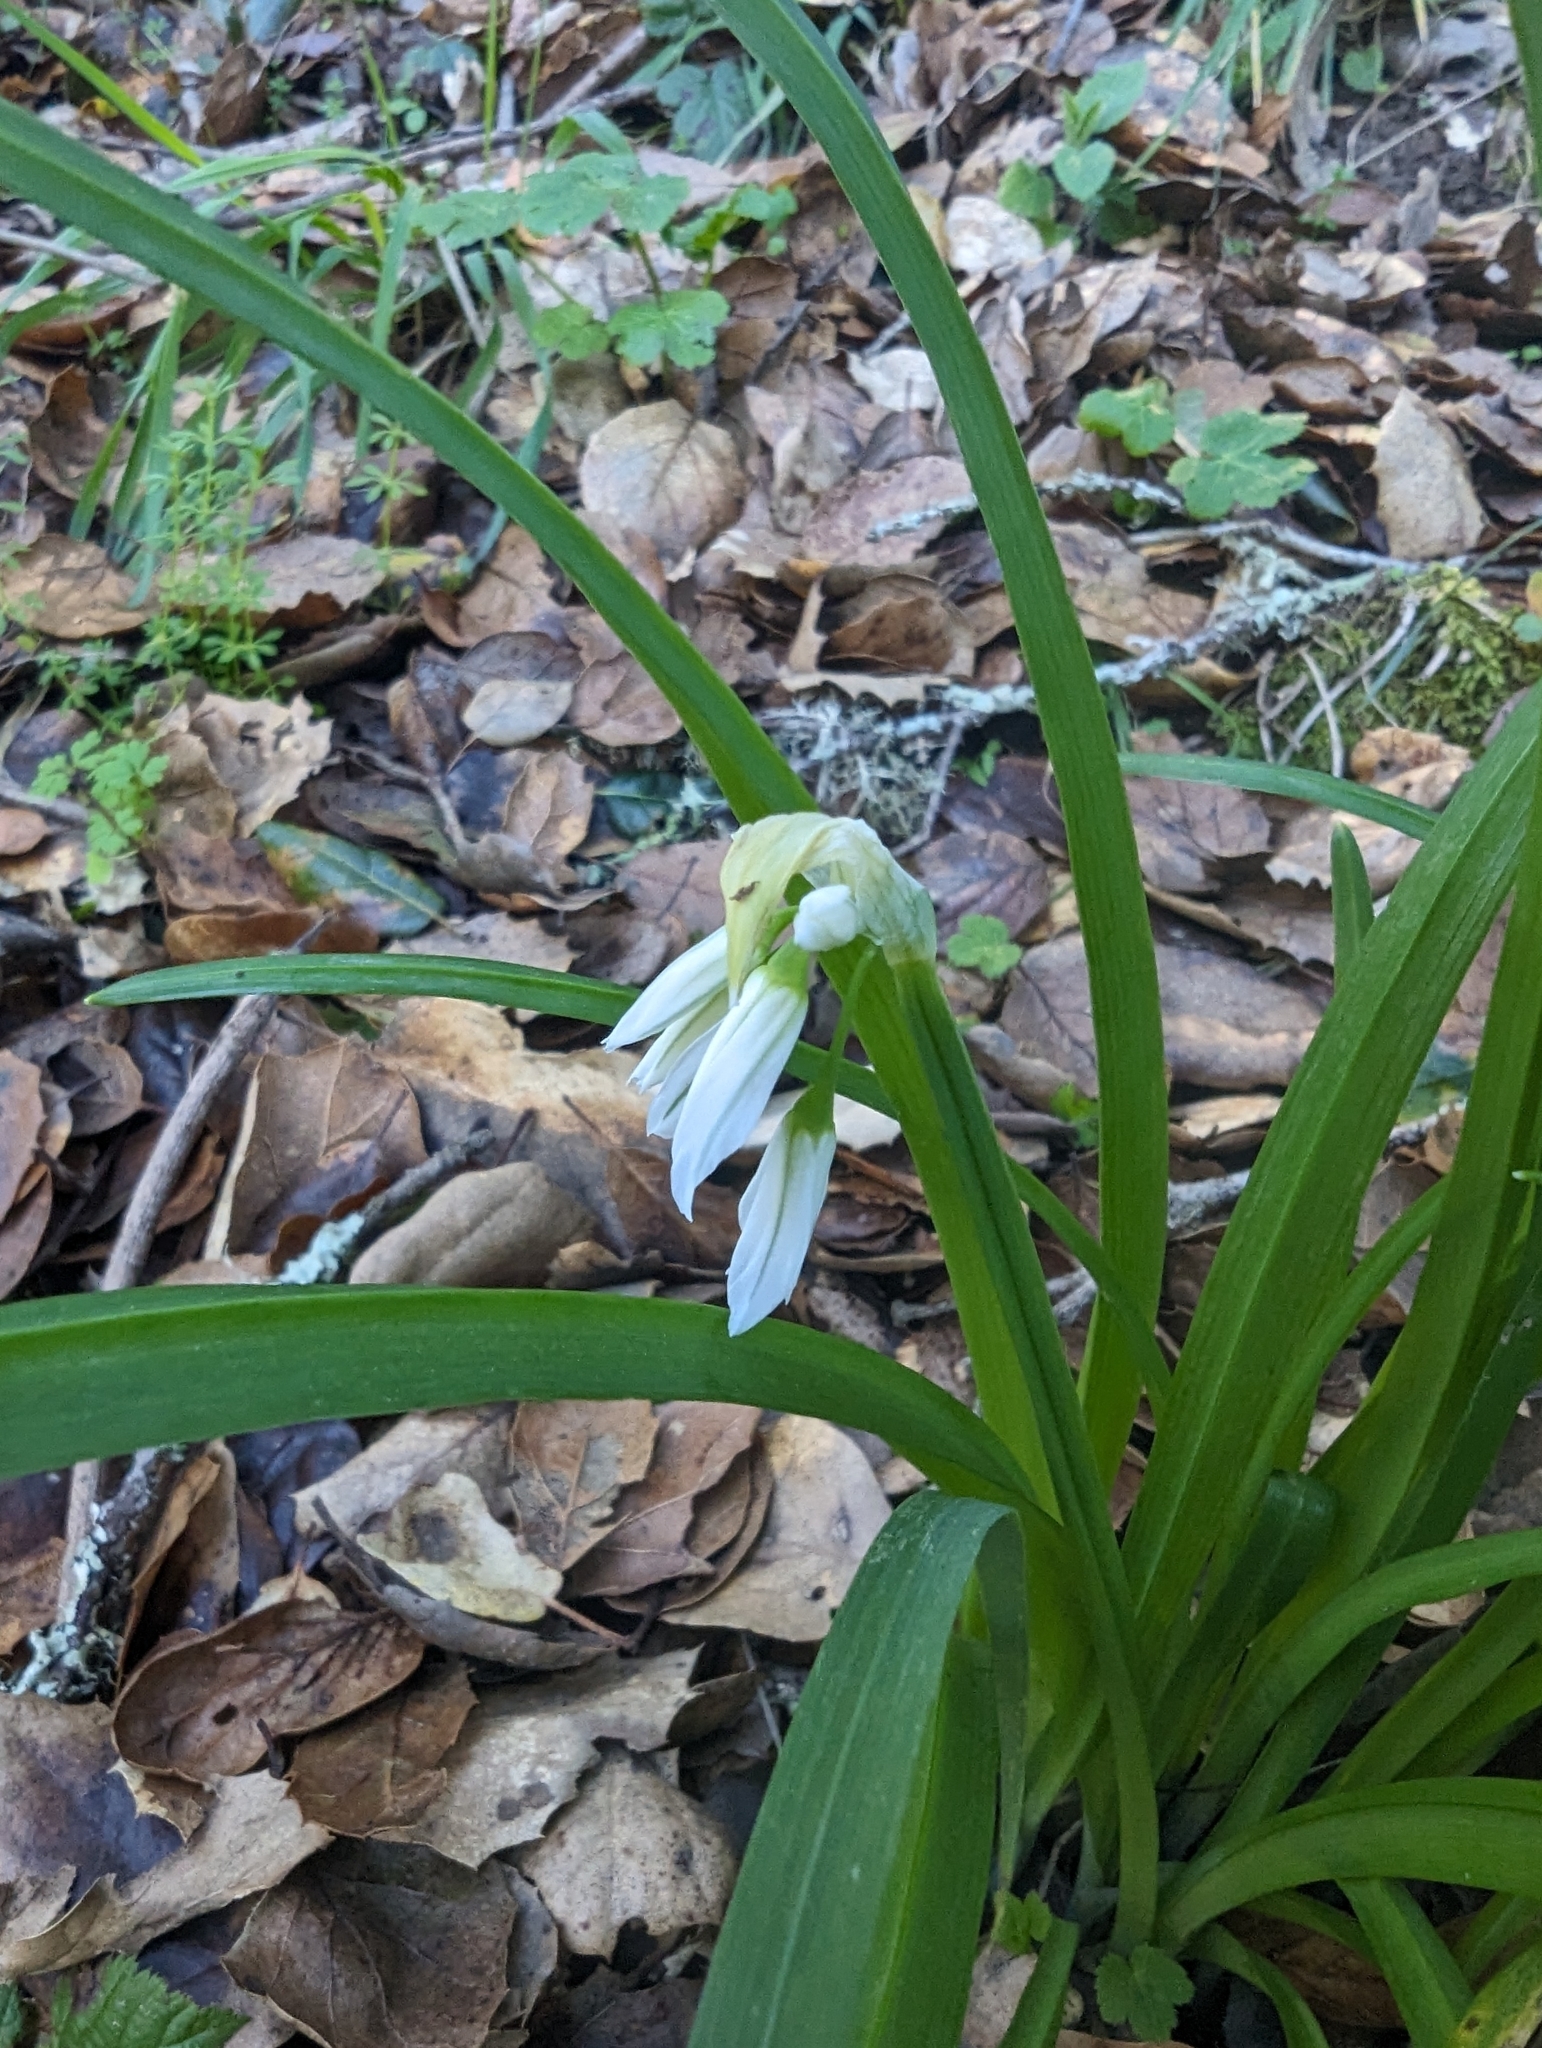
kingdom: Plantae
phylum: Tracheophyta
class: Liliopsida
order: Asparagales
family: Amaryllidaceae
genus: Allium
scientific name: Allium triquetrum
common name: Three-cornered garlic
